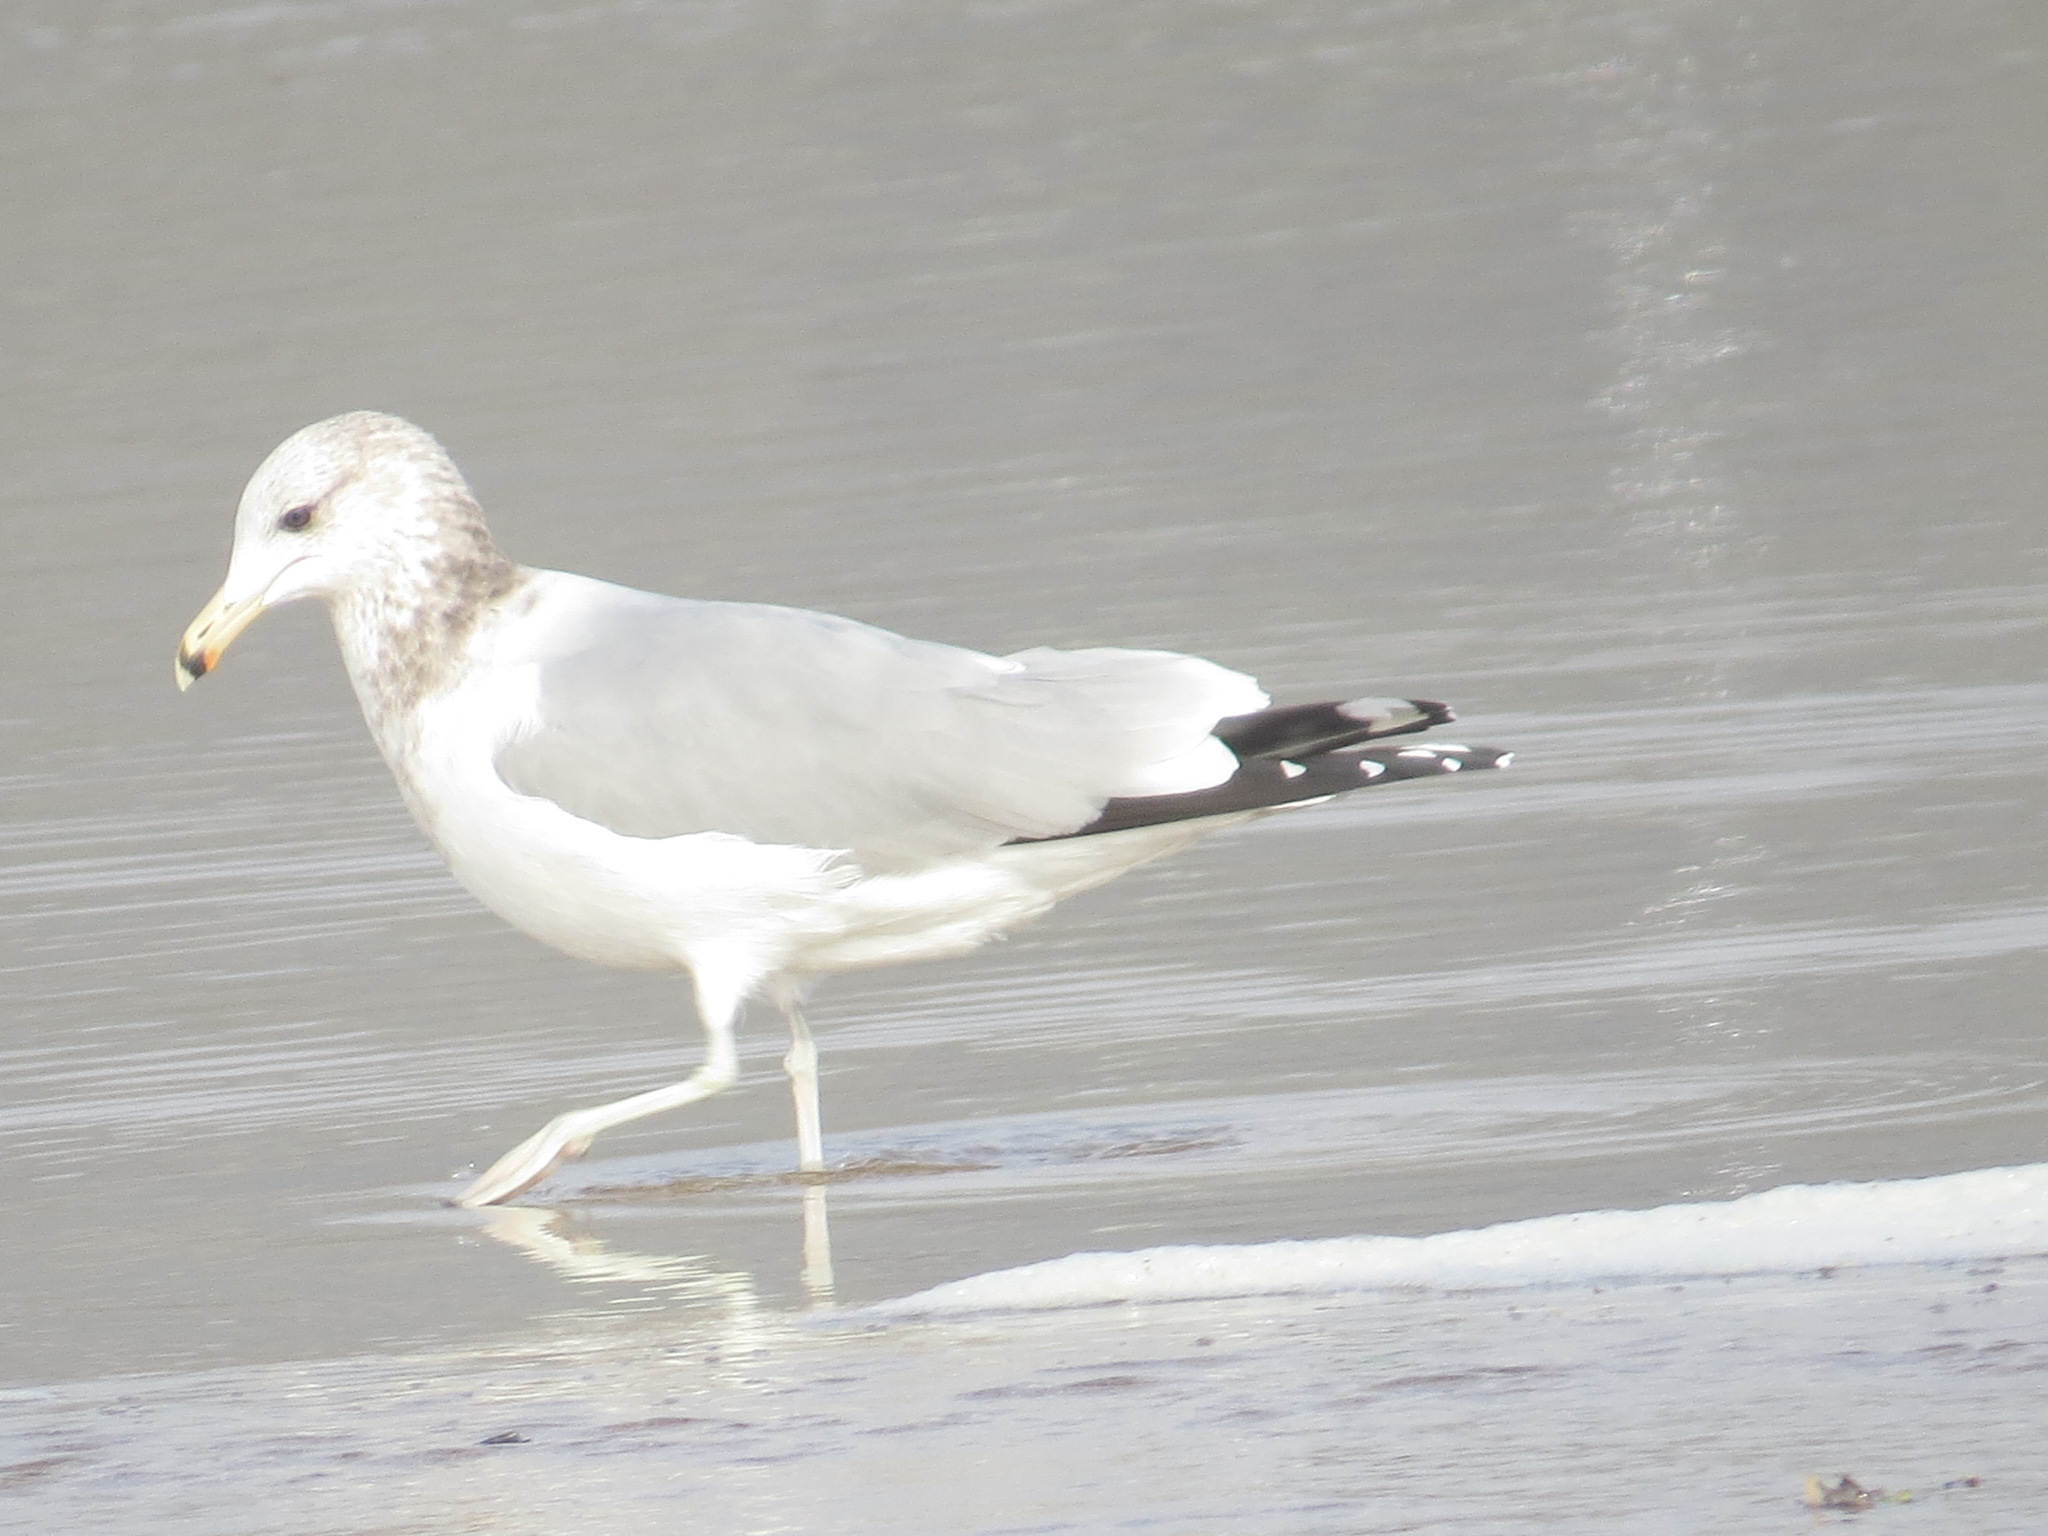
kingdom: Animalia
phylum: Chordata
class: Aves
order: Charadriiformes
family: Laridae
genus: Larus
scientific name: Larus californicus
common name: California gull
